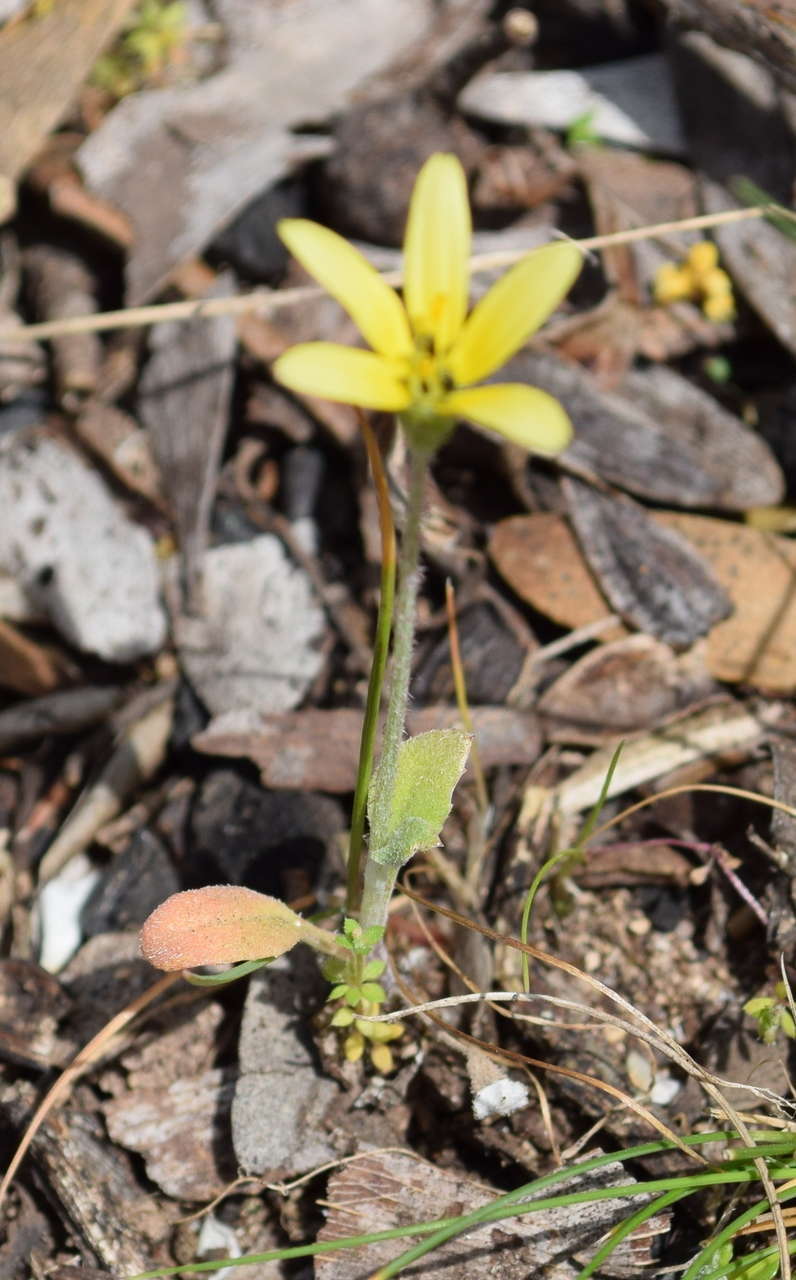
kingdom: Plantae
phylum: Tracheophyta
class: Magnoliopsida
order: Asterales
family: Asteraceae
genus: Arctotheca
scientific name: Arctotheca calendula
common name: Capeweed
